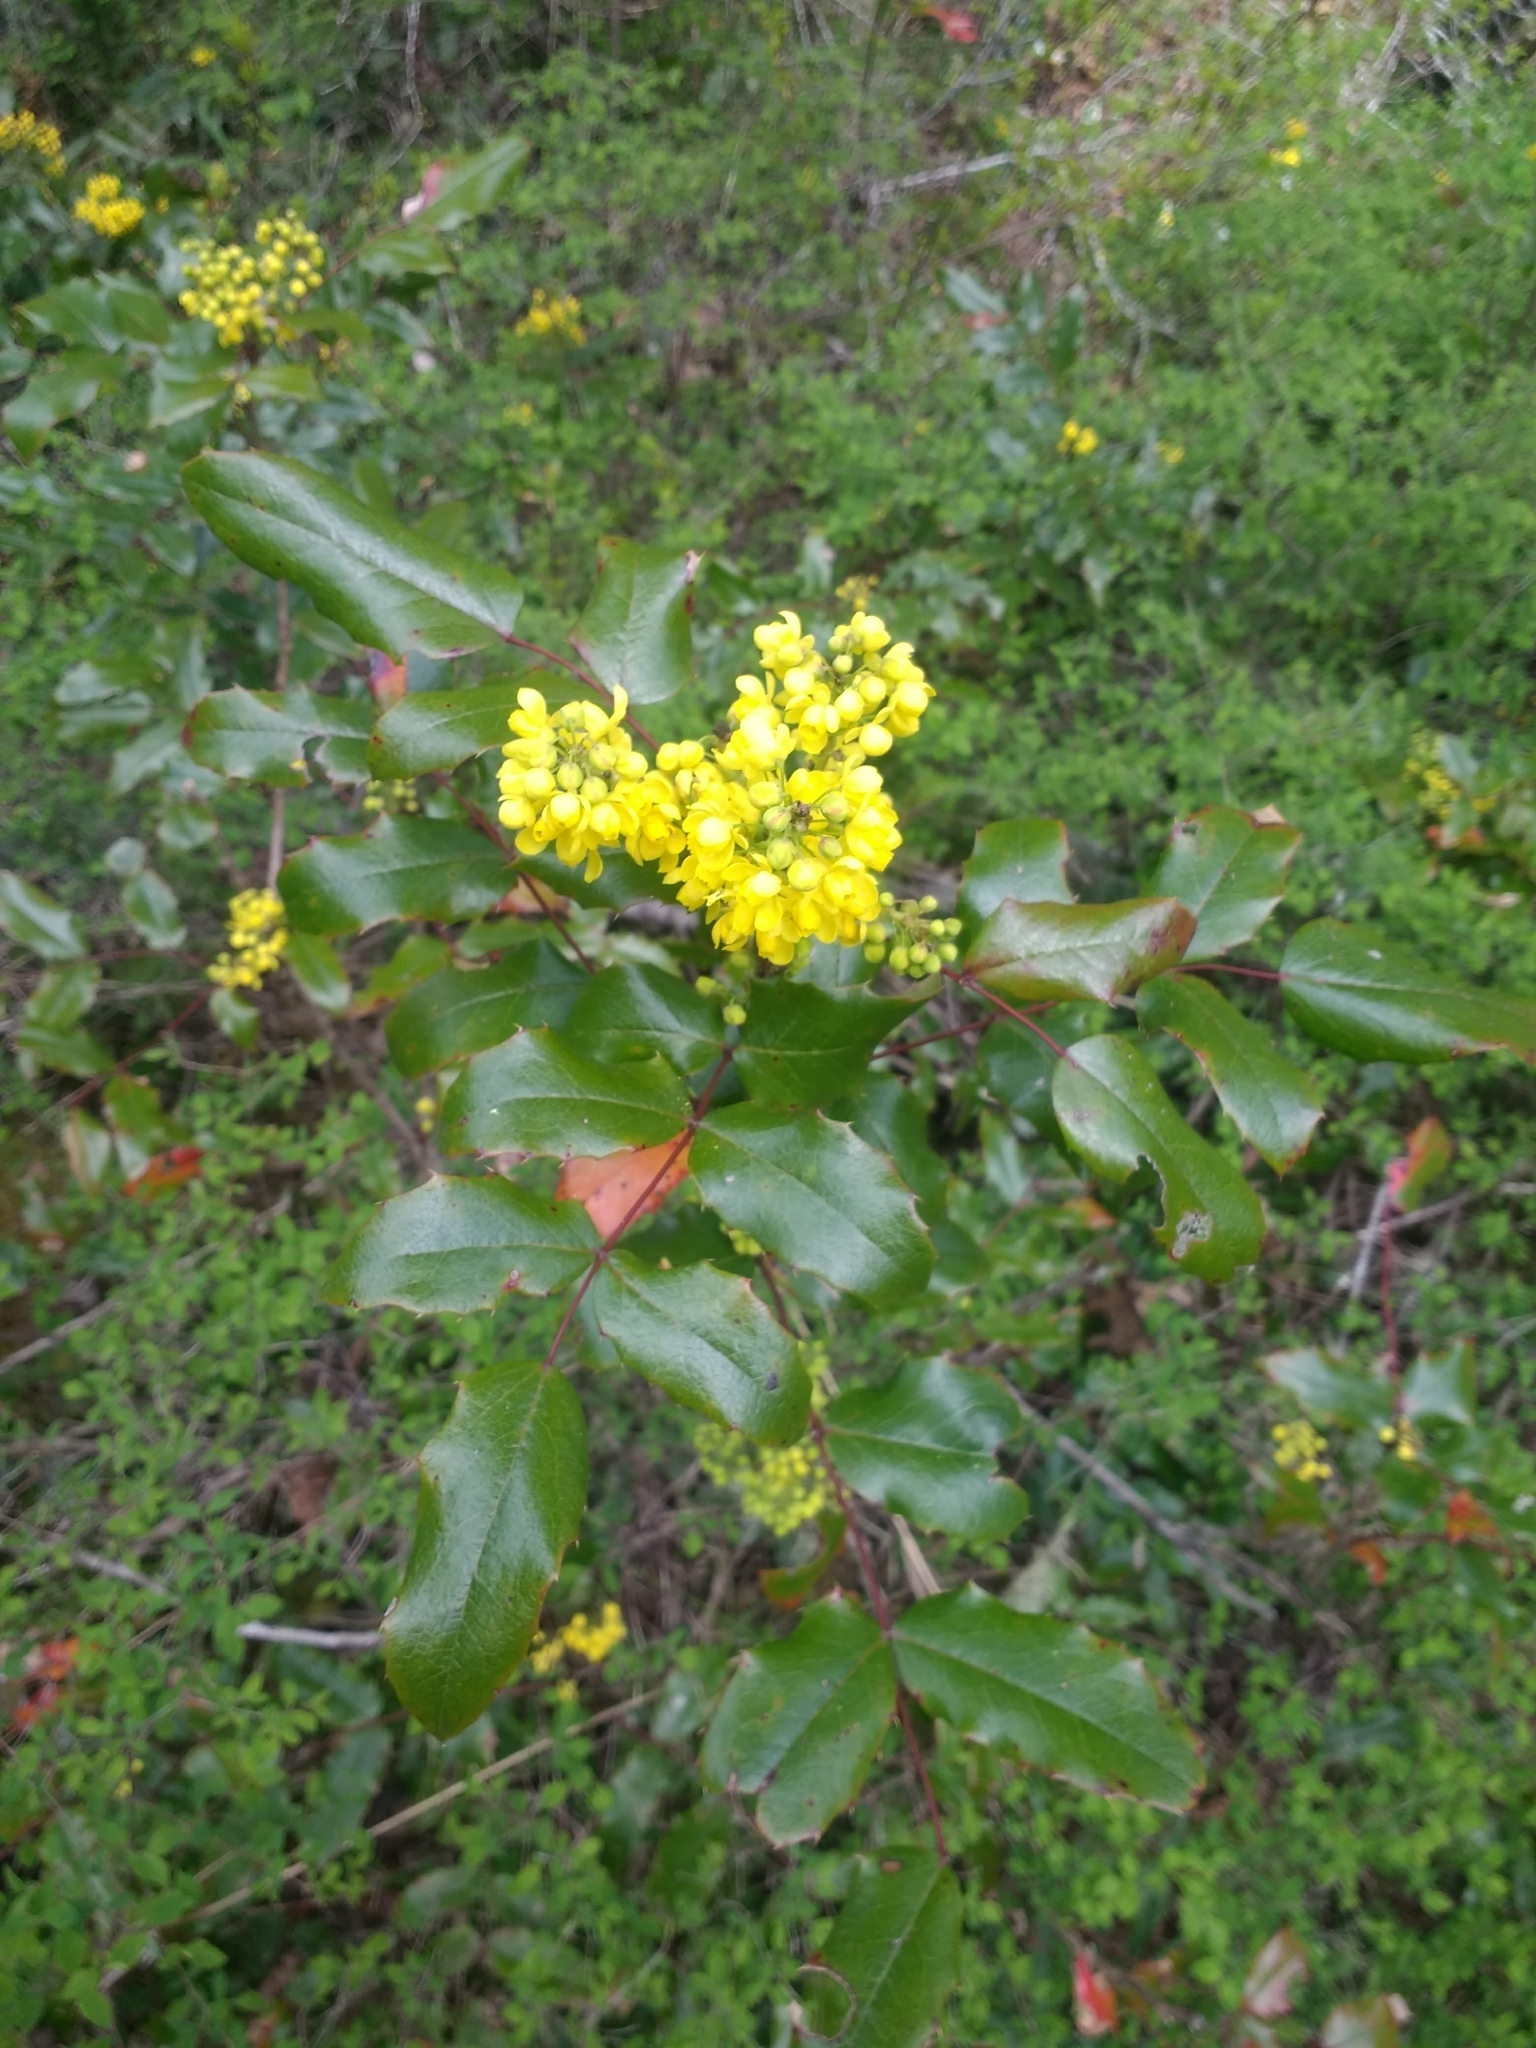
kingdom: Plantae
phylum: Tracheophyta
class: Magnoliopsida
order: Ranunculales
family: Berberidaceae
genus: Mahonia
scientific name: Mahonia aquifolium
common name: Oregon-grape
